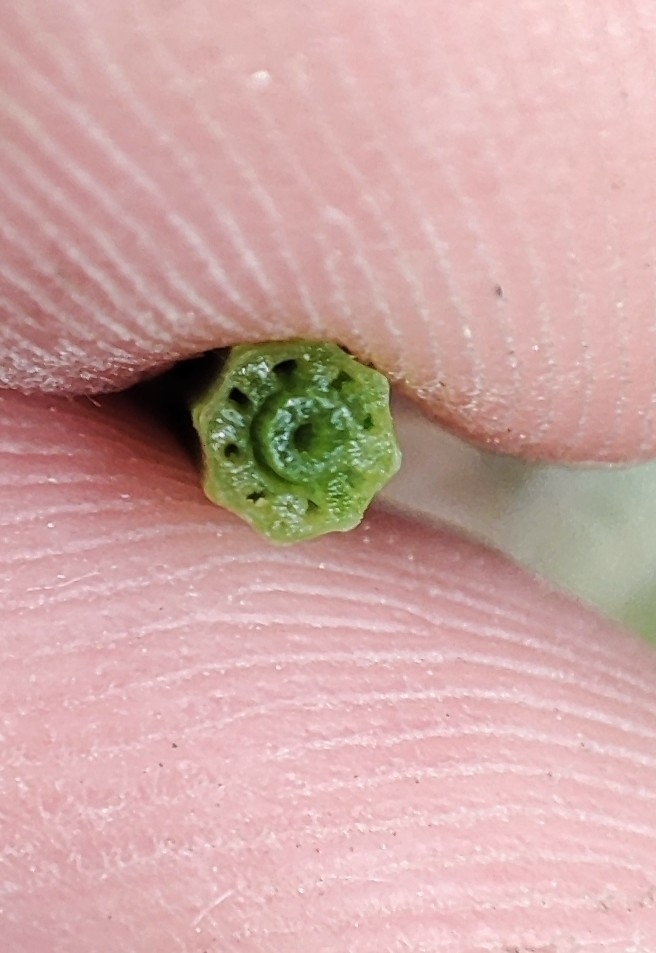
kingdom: Plantae
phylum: Tracheophyta
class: Polypodiopsida
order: Equisetales
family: Equisetaceae
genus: Equisetum
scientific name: Equisetum palustre
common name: Marsh horsetail
